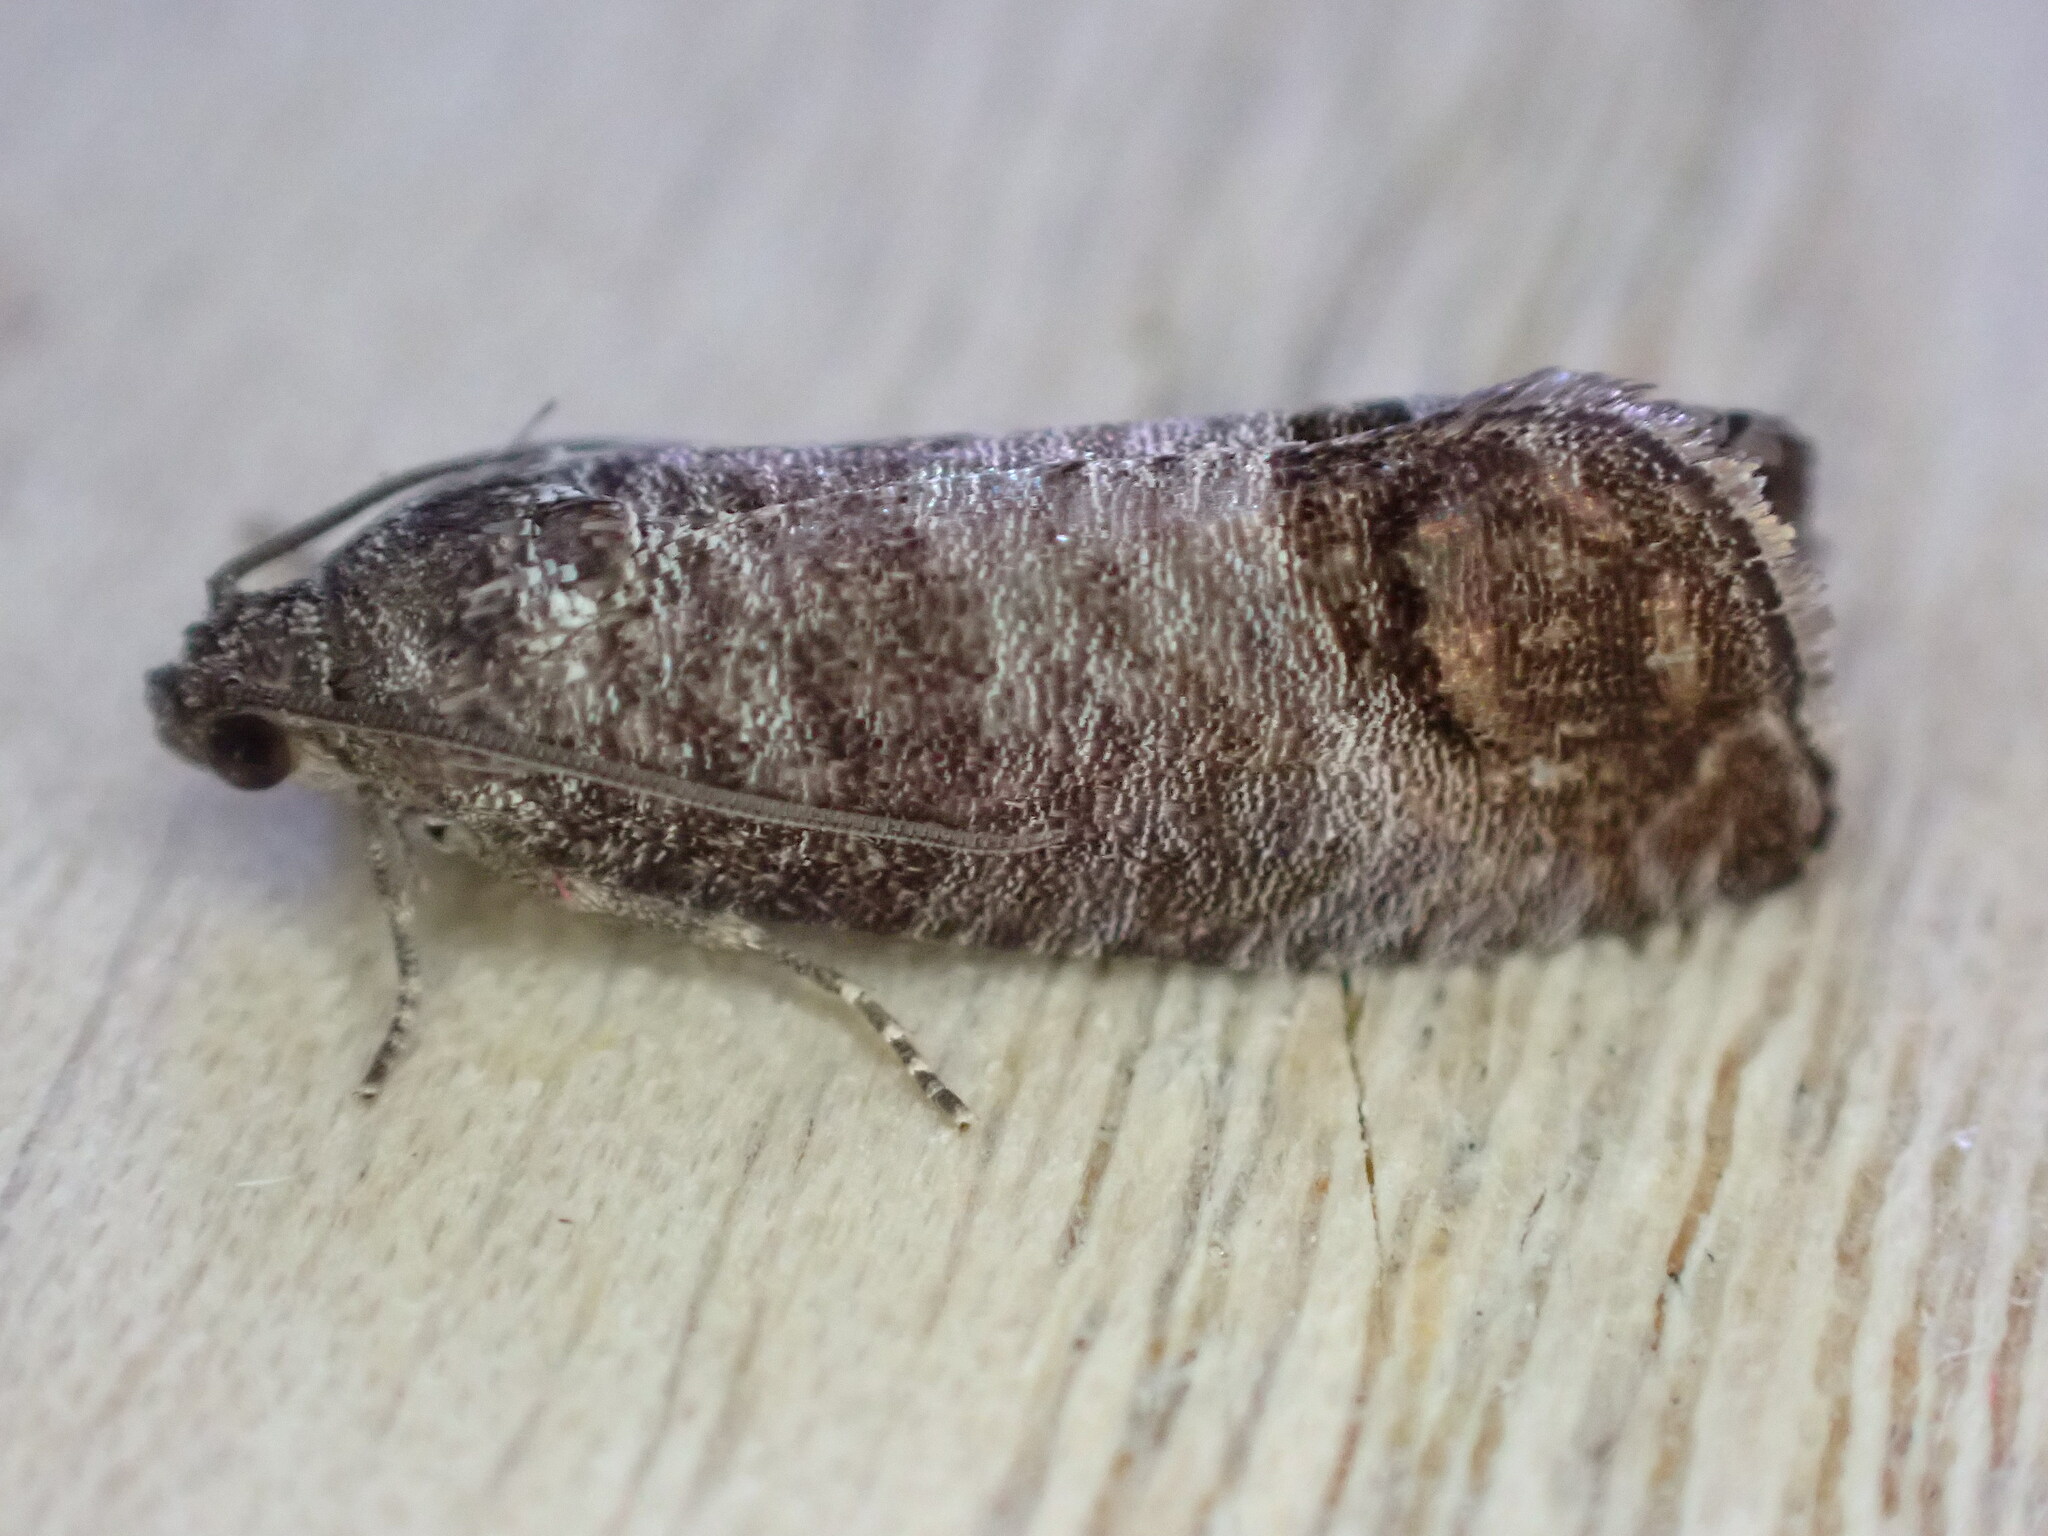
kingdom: Animalia
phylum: Arthropoda
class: Insecta
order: Lepidoptera
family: Tortricidae
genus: Cydia
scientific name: Cydia pomonella
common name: Codling moth
